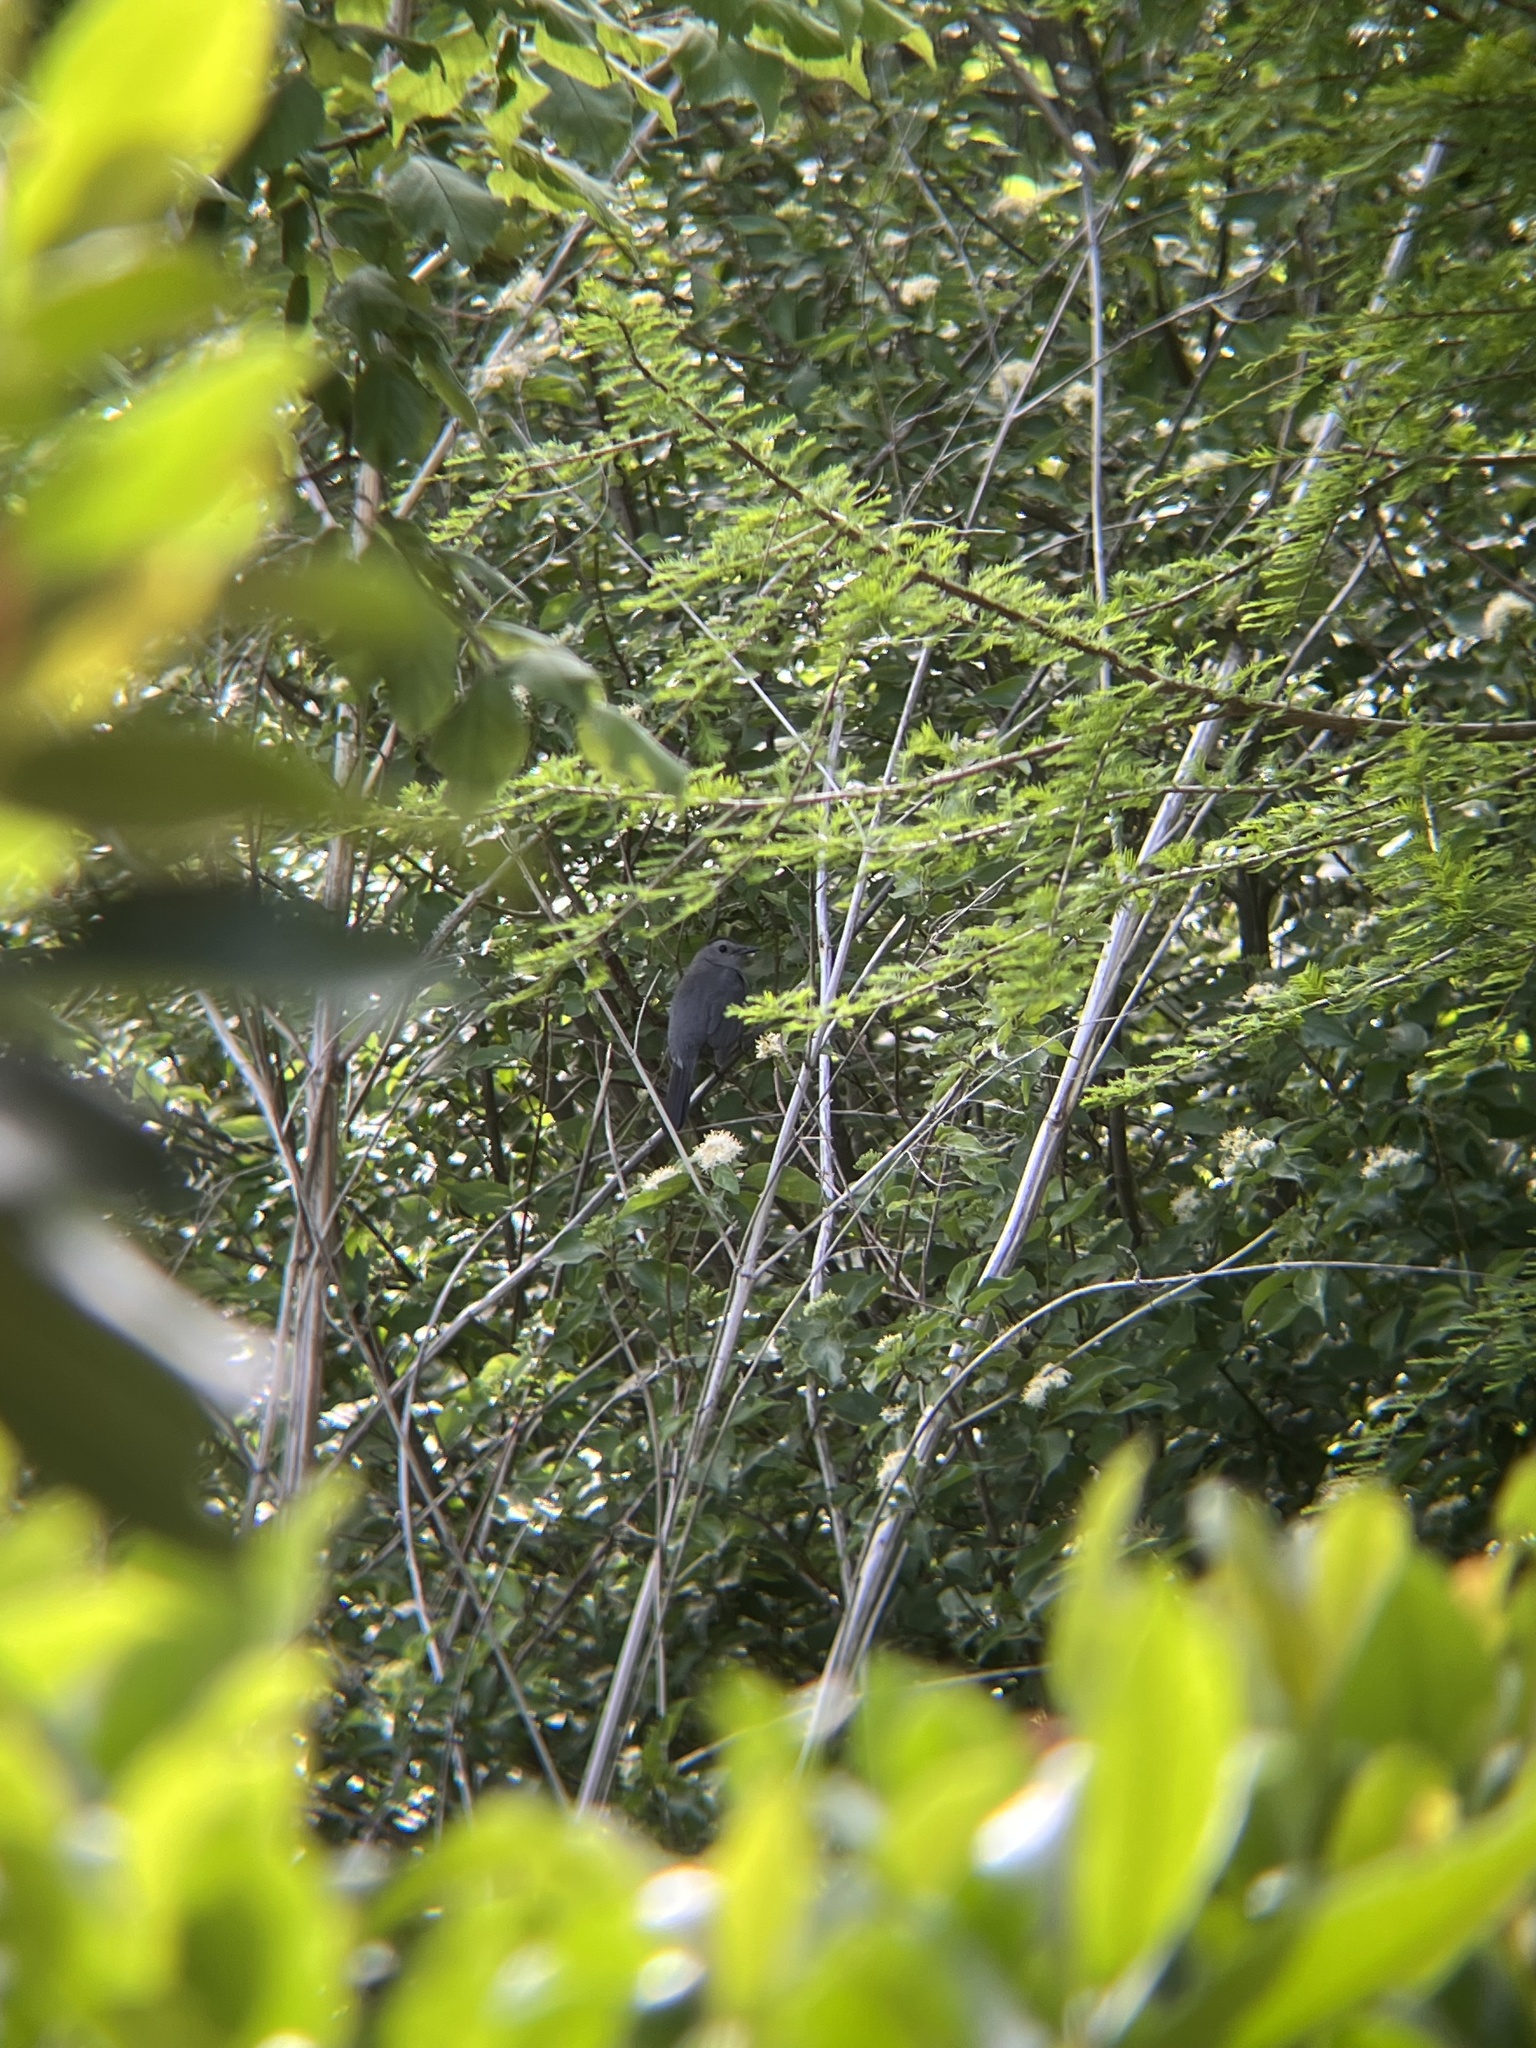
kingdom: Animalia
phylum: Chordata
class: Aves
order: Passeriformes
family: Mimidae
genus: Dumetella
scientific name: Dumetella carolinensis
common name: Gray catbird
